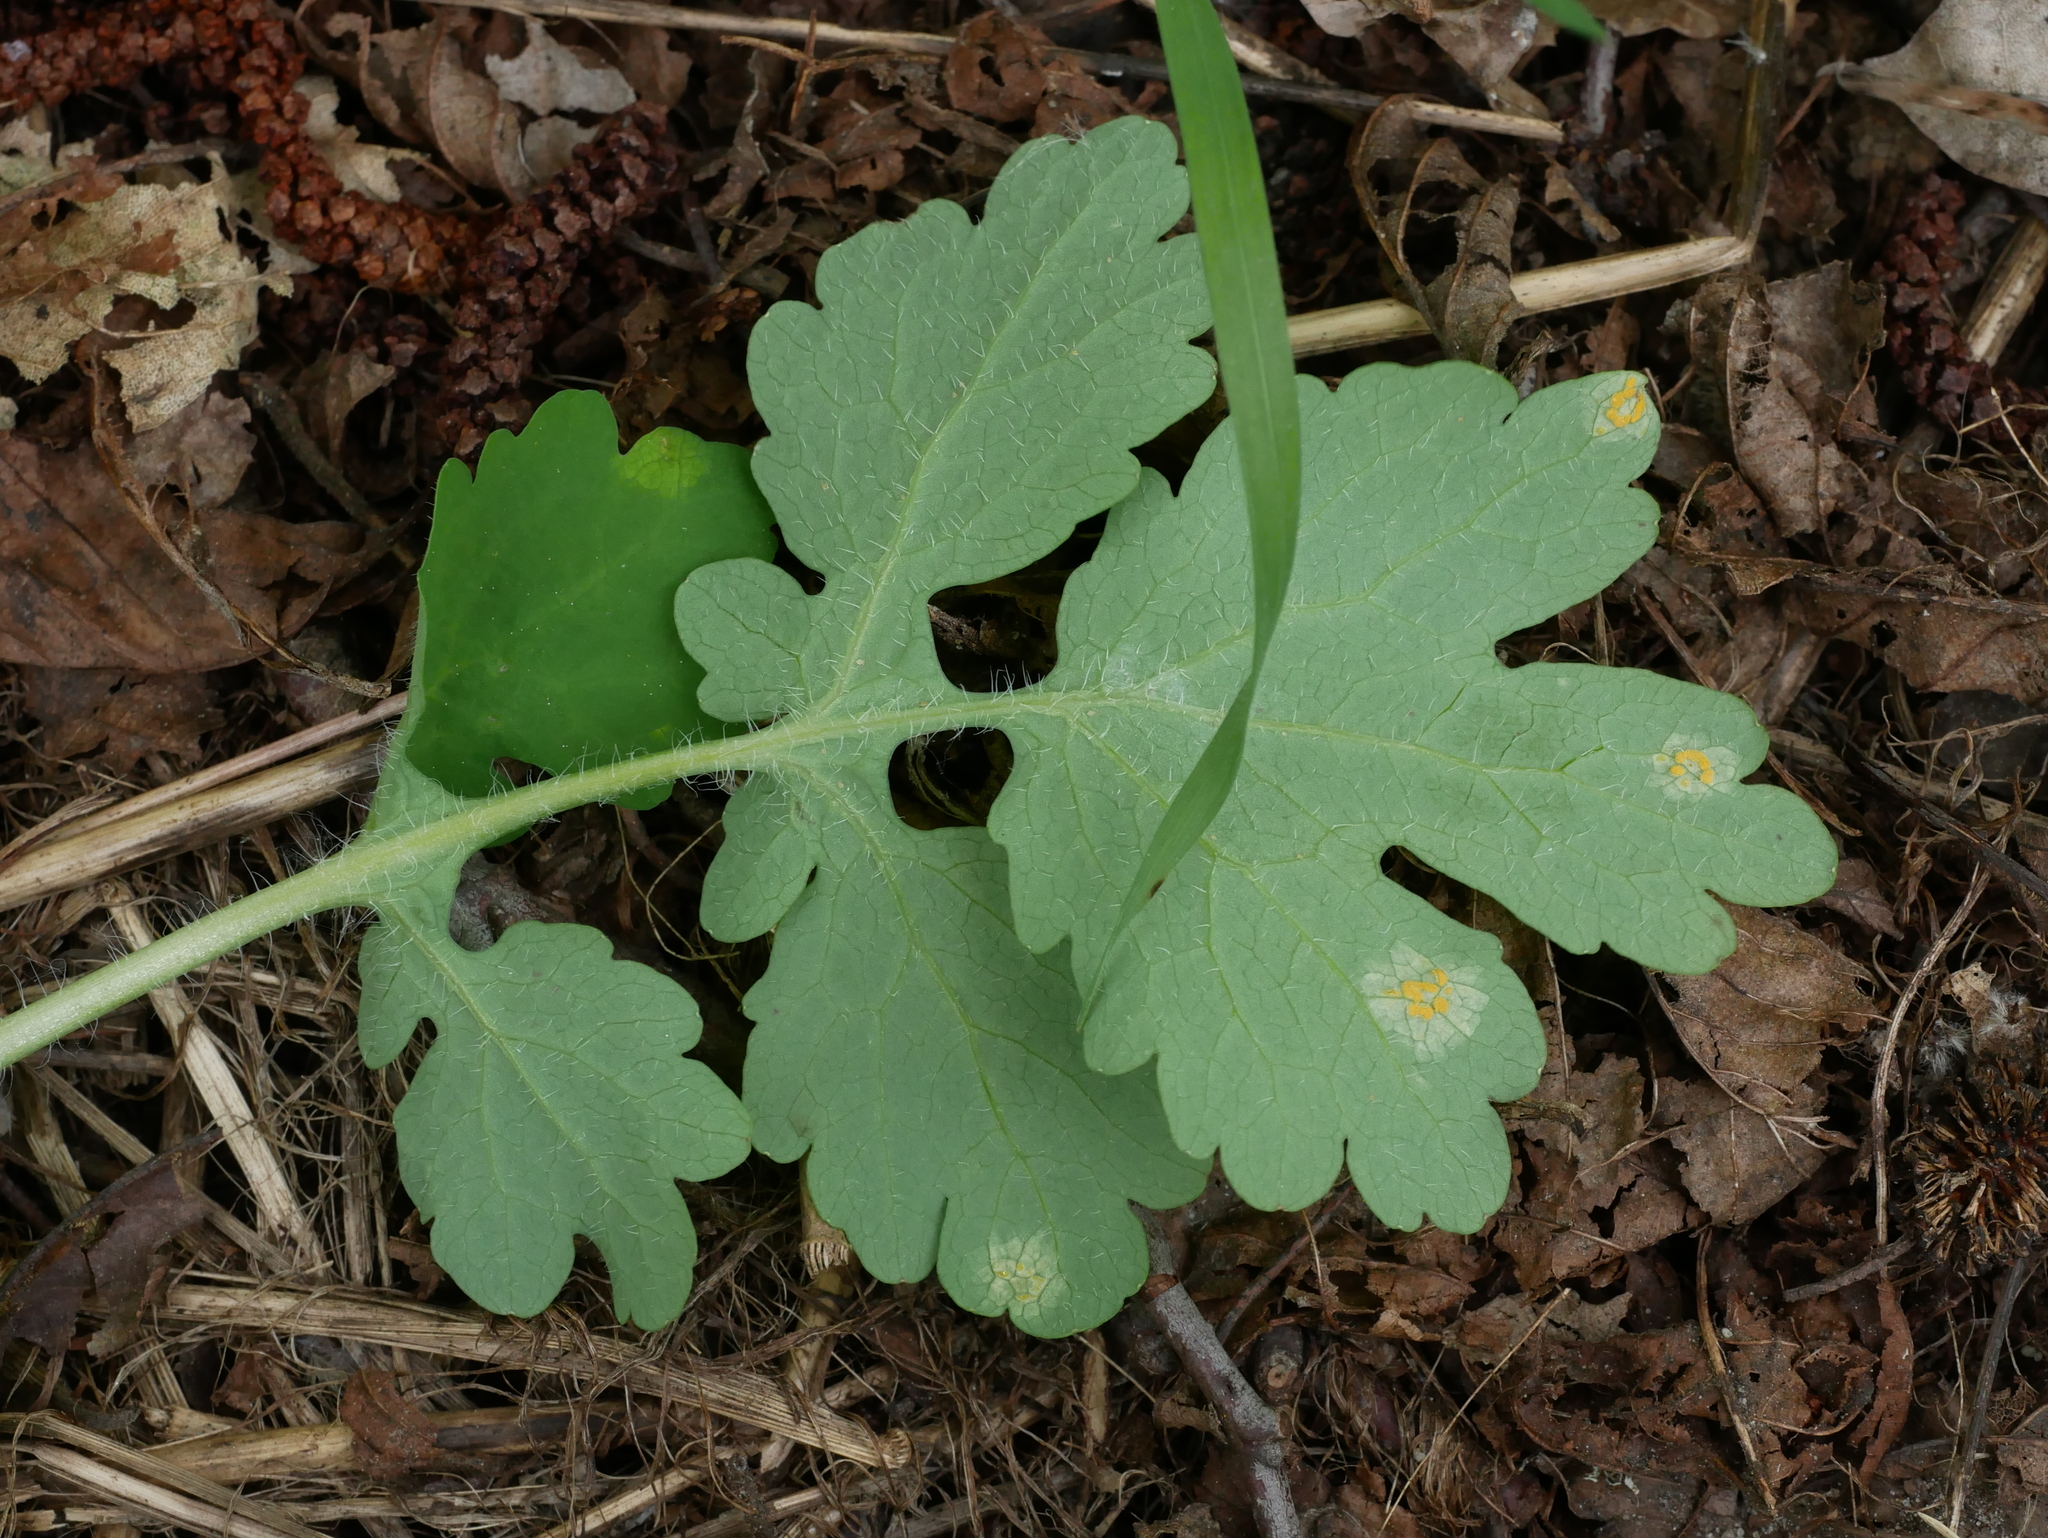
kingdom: Fungi
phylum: Basidiomycota
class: Pucciniomycetes
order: Pucciniales
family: Melampsoraceae
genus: Melampsora
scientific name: Melampsora magnusiana
